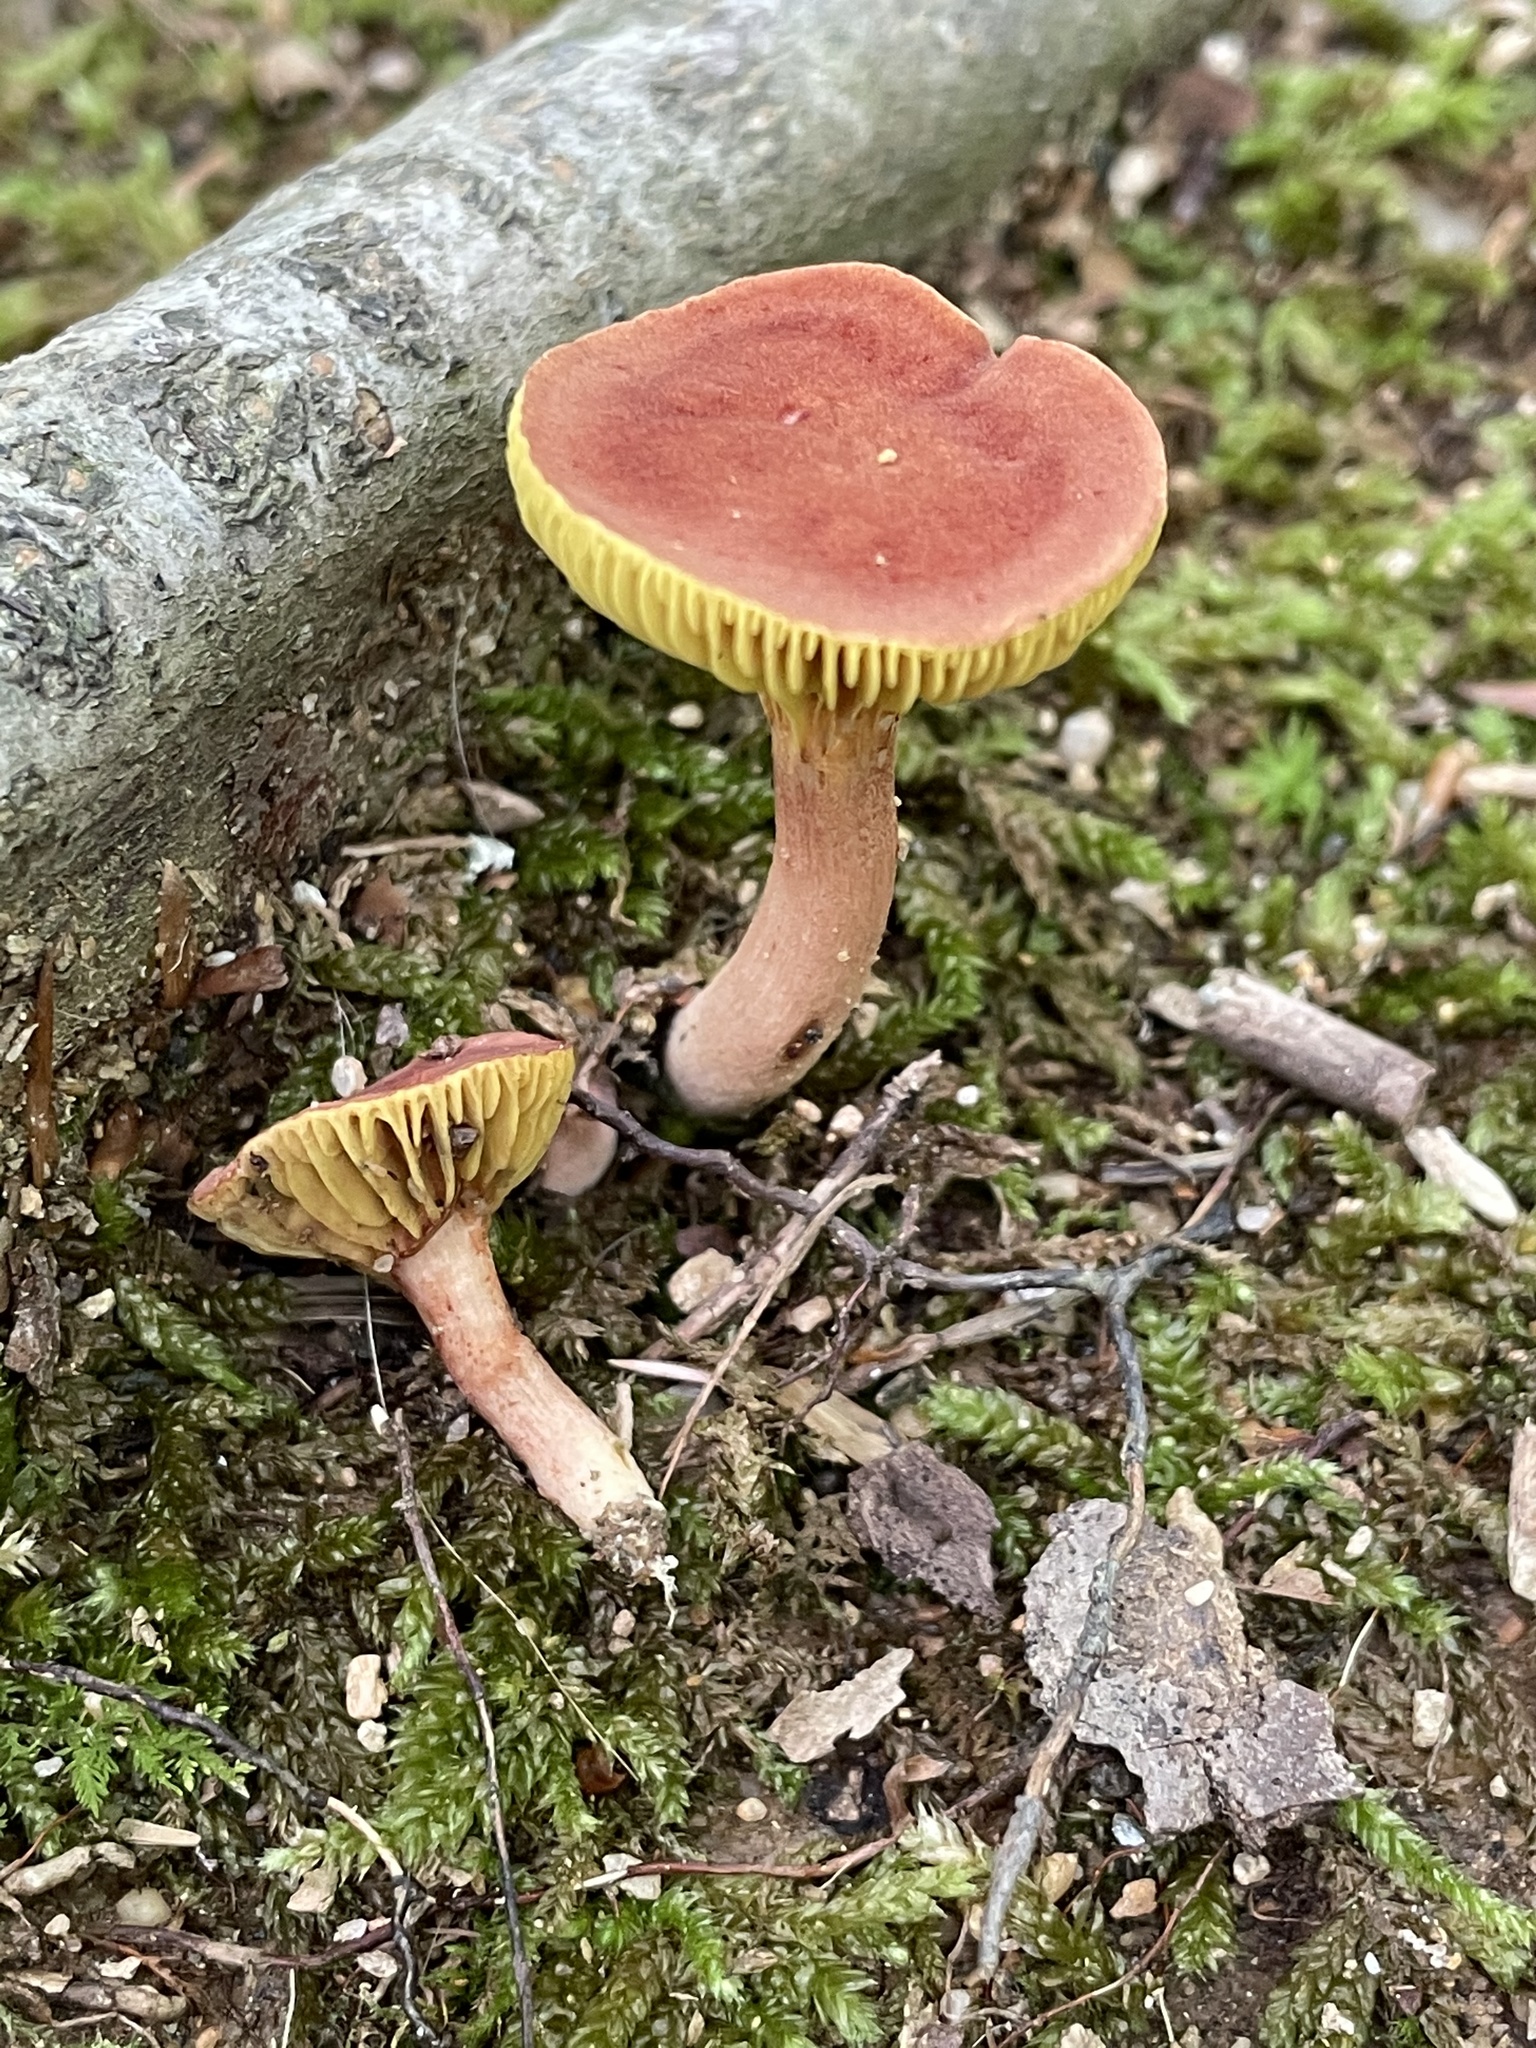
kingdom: Fungi
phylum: Basidiomycota
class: Agaricomycetes
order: Boletales
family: Boletaceae
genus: Phylloporus
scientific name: Phylloporus leucomycelinus
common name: Gilled bolete
